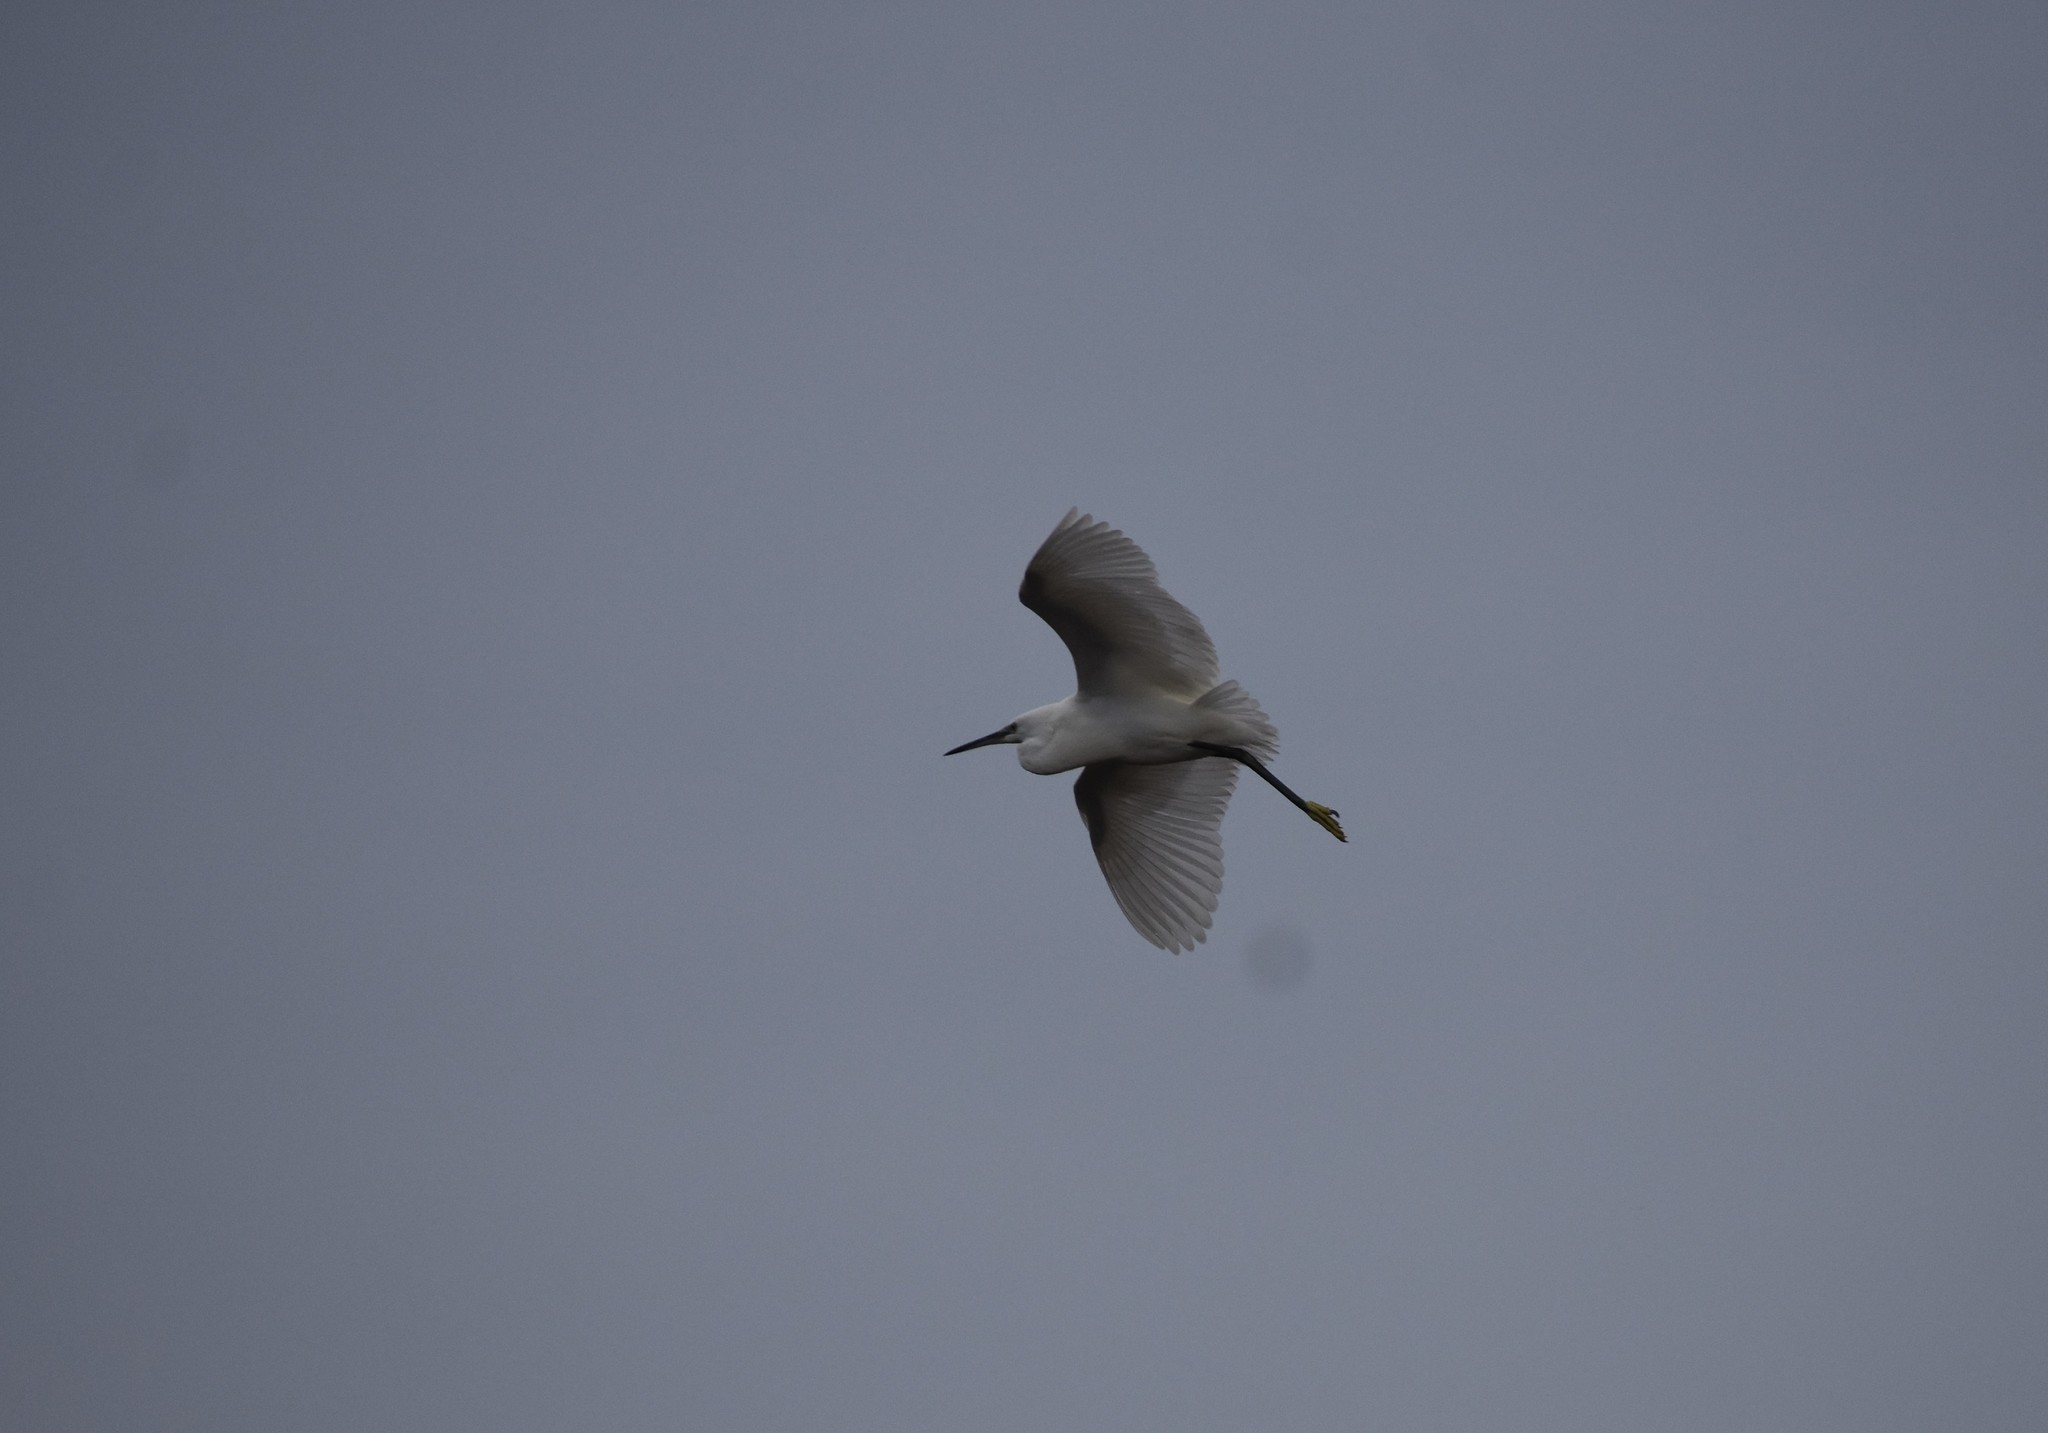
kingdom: Animalia
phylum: Chordata
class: Aves
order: Pelecaniformes
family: Ardeidae
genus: Egretta
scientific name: Egretta garzetta
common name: Little egret
